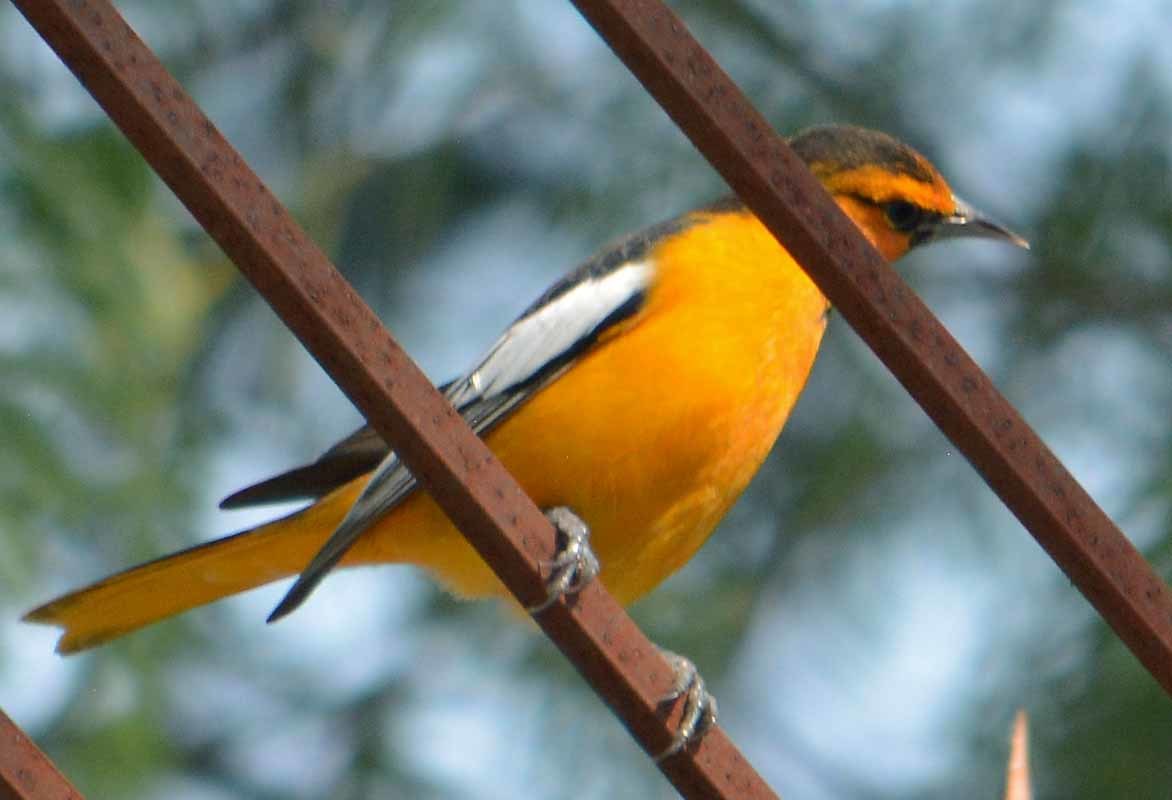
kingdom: Animalia
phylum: Chordata
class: Aves
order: Passeriformes
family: Icteridae
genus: Icterus
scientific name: Icterus bullockii
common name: Bullock's oriole
